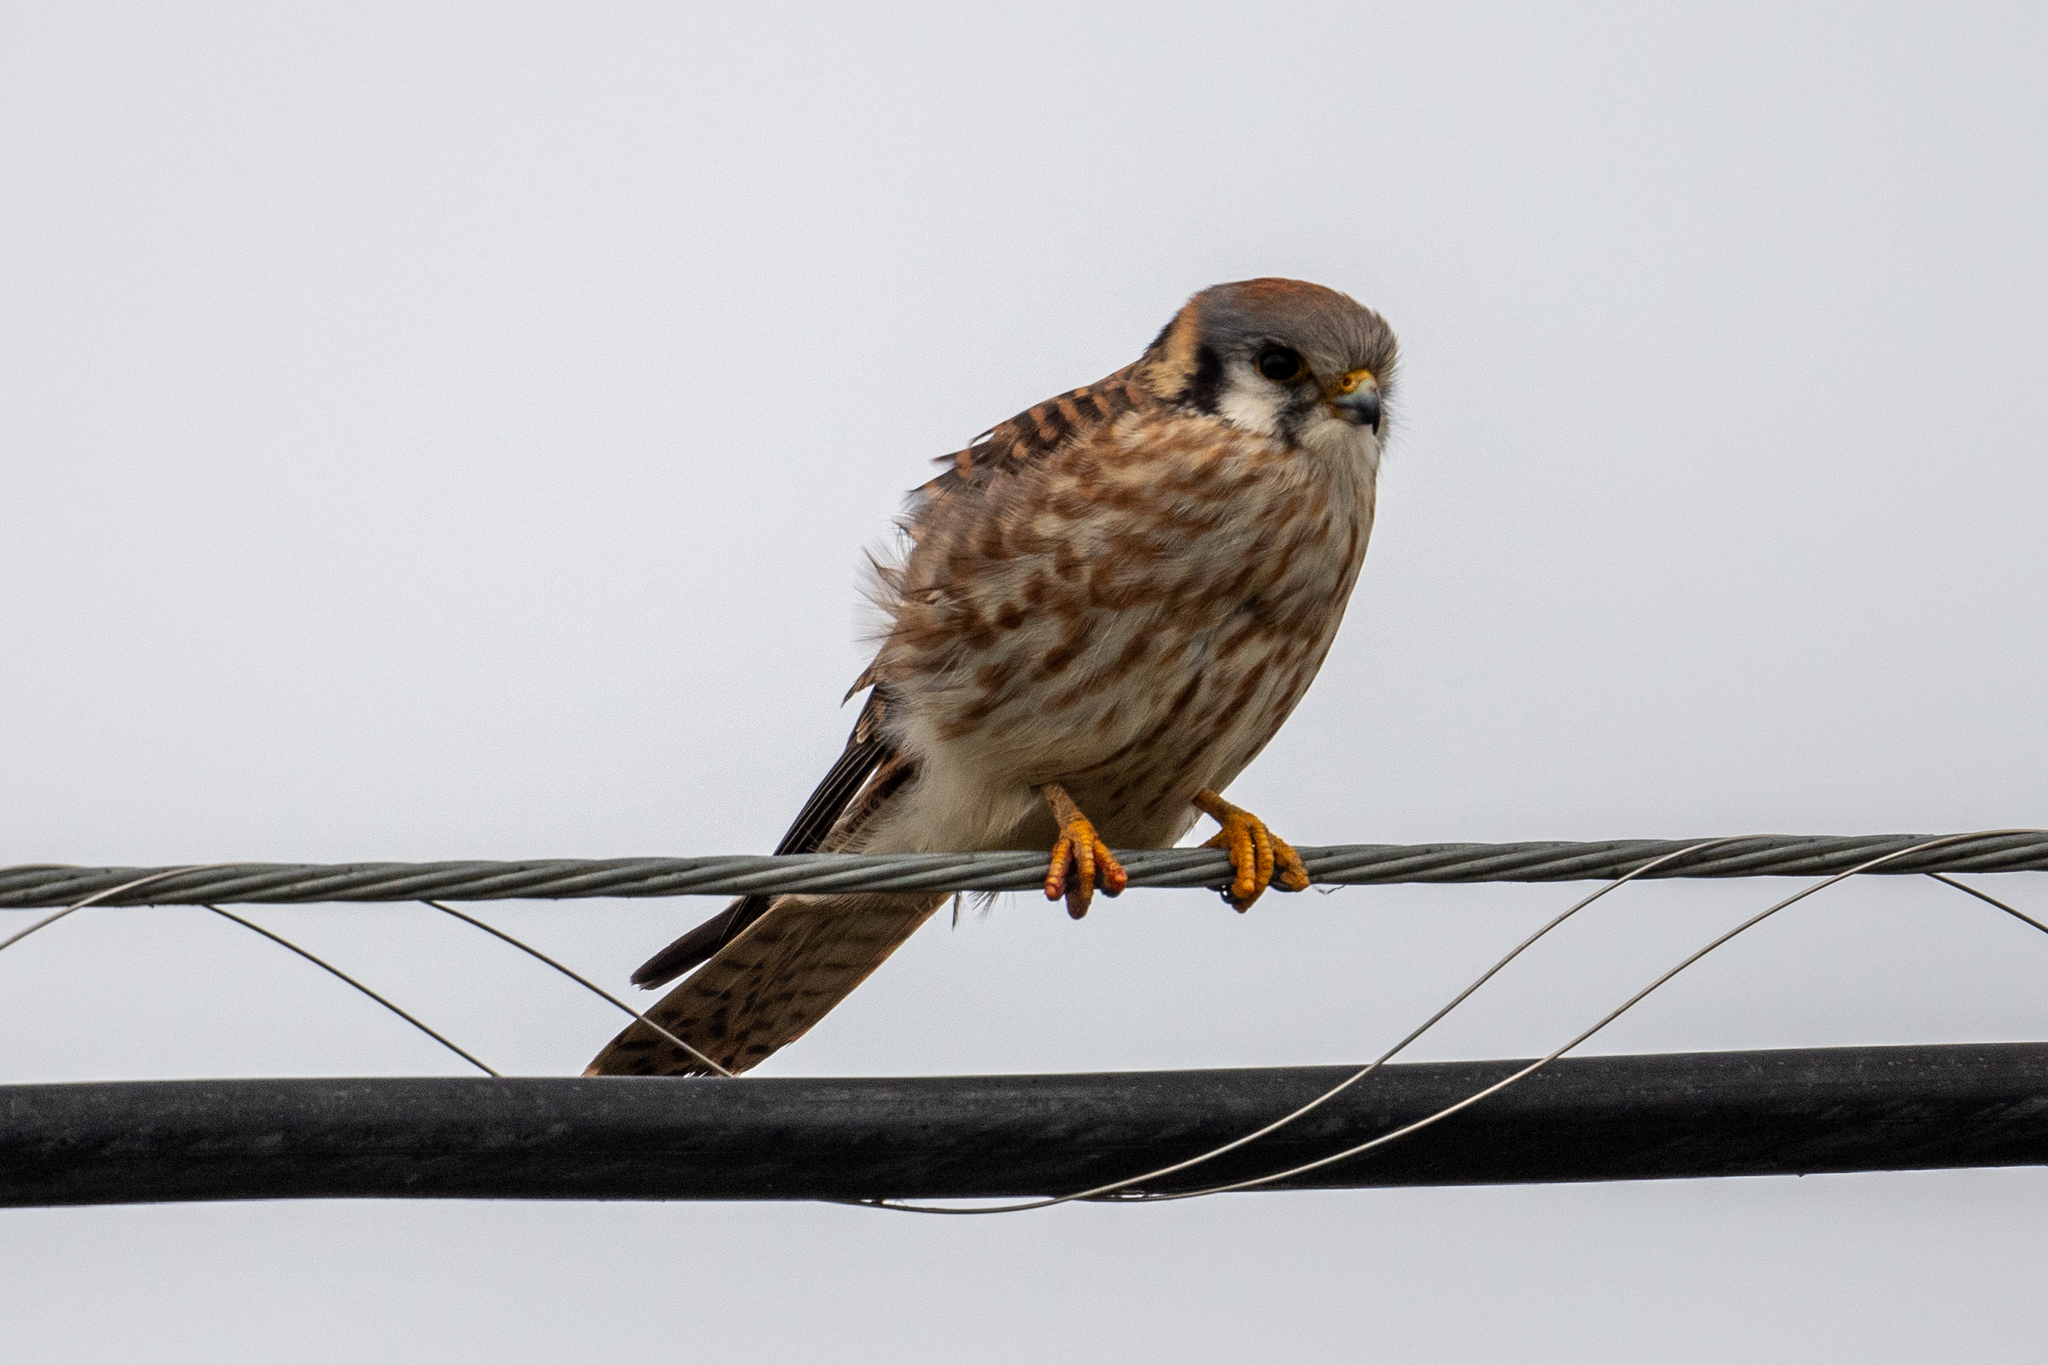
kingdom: Animalia
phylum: Chordata
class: Aves
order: Falconiformes
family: Falconidae
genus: Falco
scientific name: Falco sparverius
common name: American kestrel
